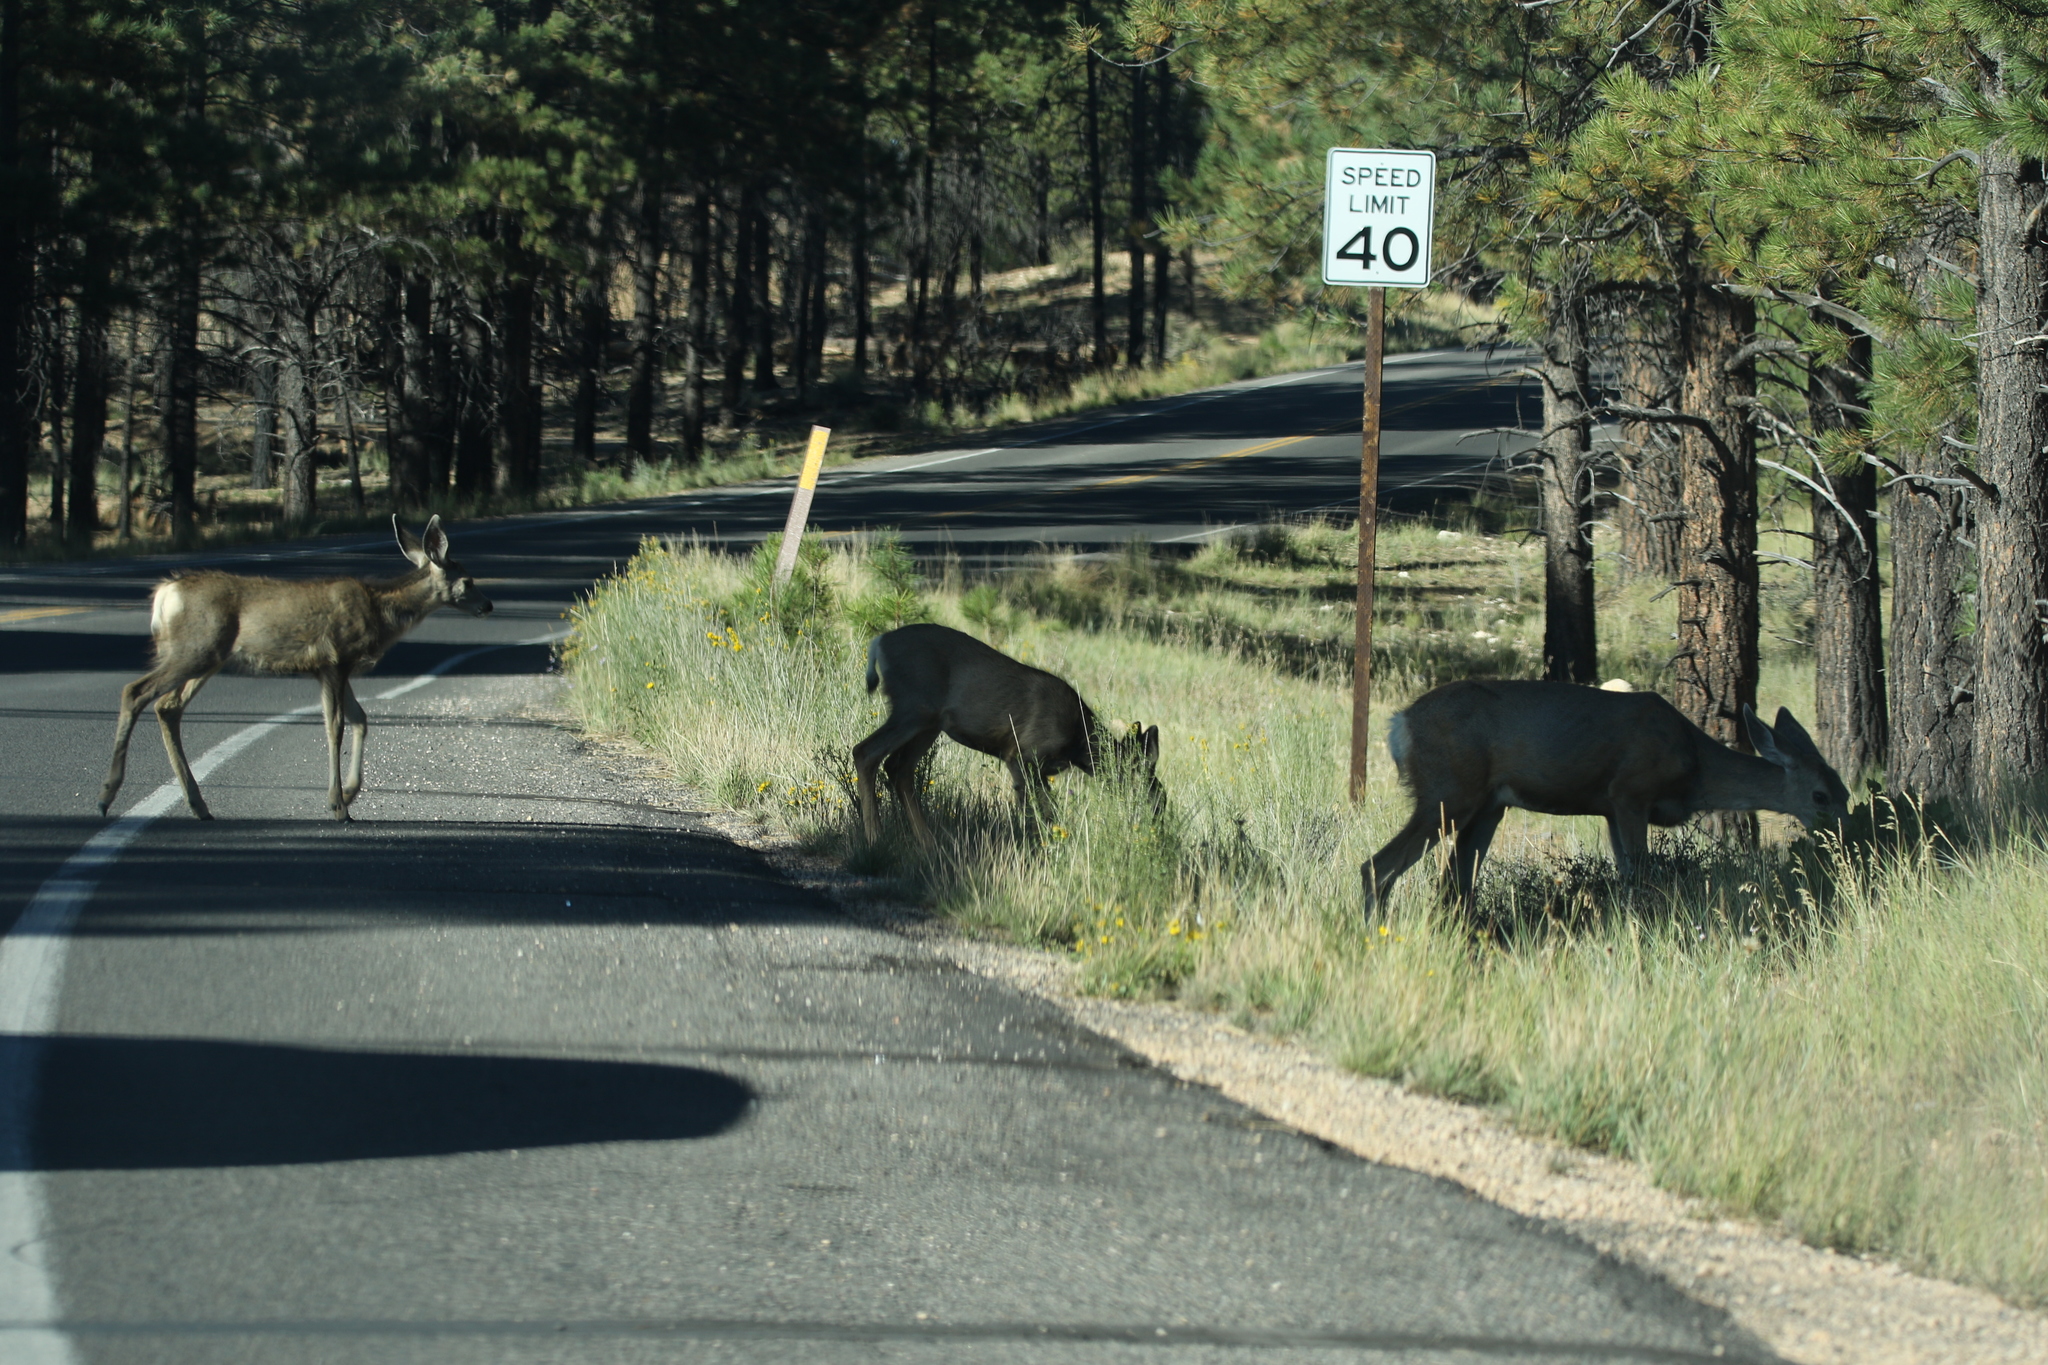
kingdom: Animalia
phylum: Chordata
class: Mammalia
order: Artiodactyla
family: Cervidae
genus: Odocoileus
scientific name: Odocoileus hemionus
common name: Mule deer
